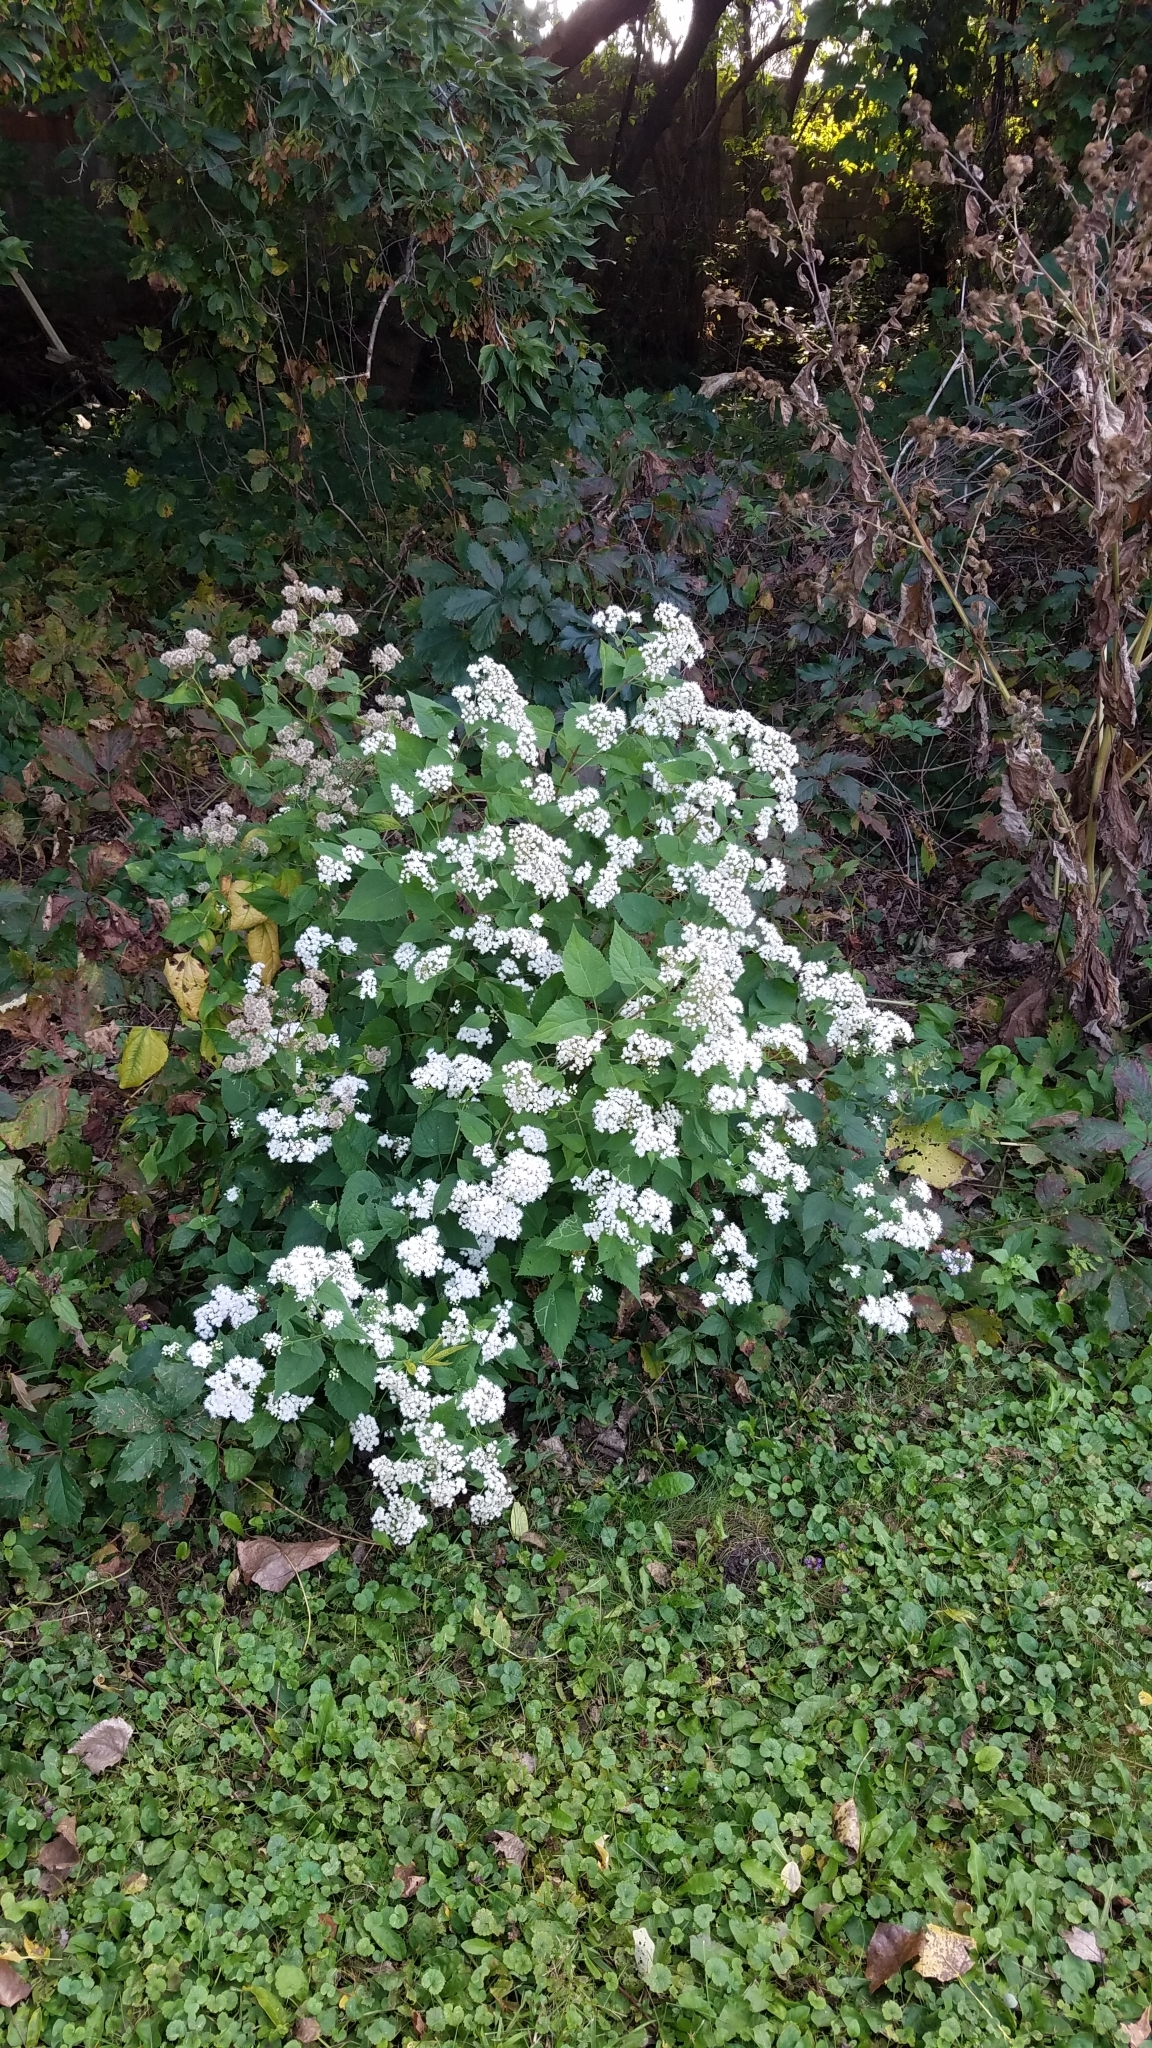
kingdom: Plantae
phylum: Tracheophyta
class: Magnoliopsida
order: Asterales
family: Asteraceae
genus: Ageratina
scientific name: Ageratina altissima
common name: White snakeroot
